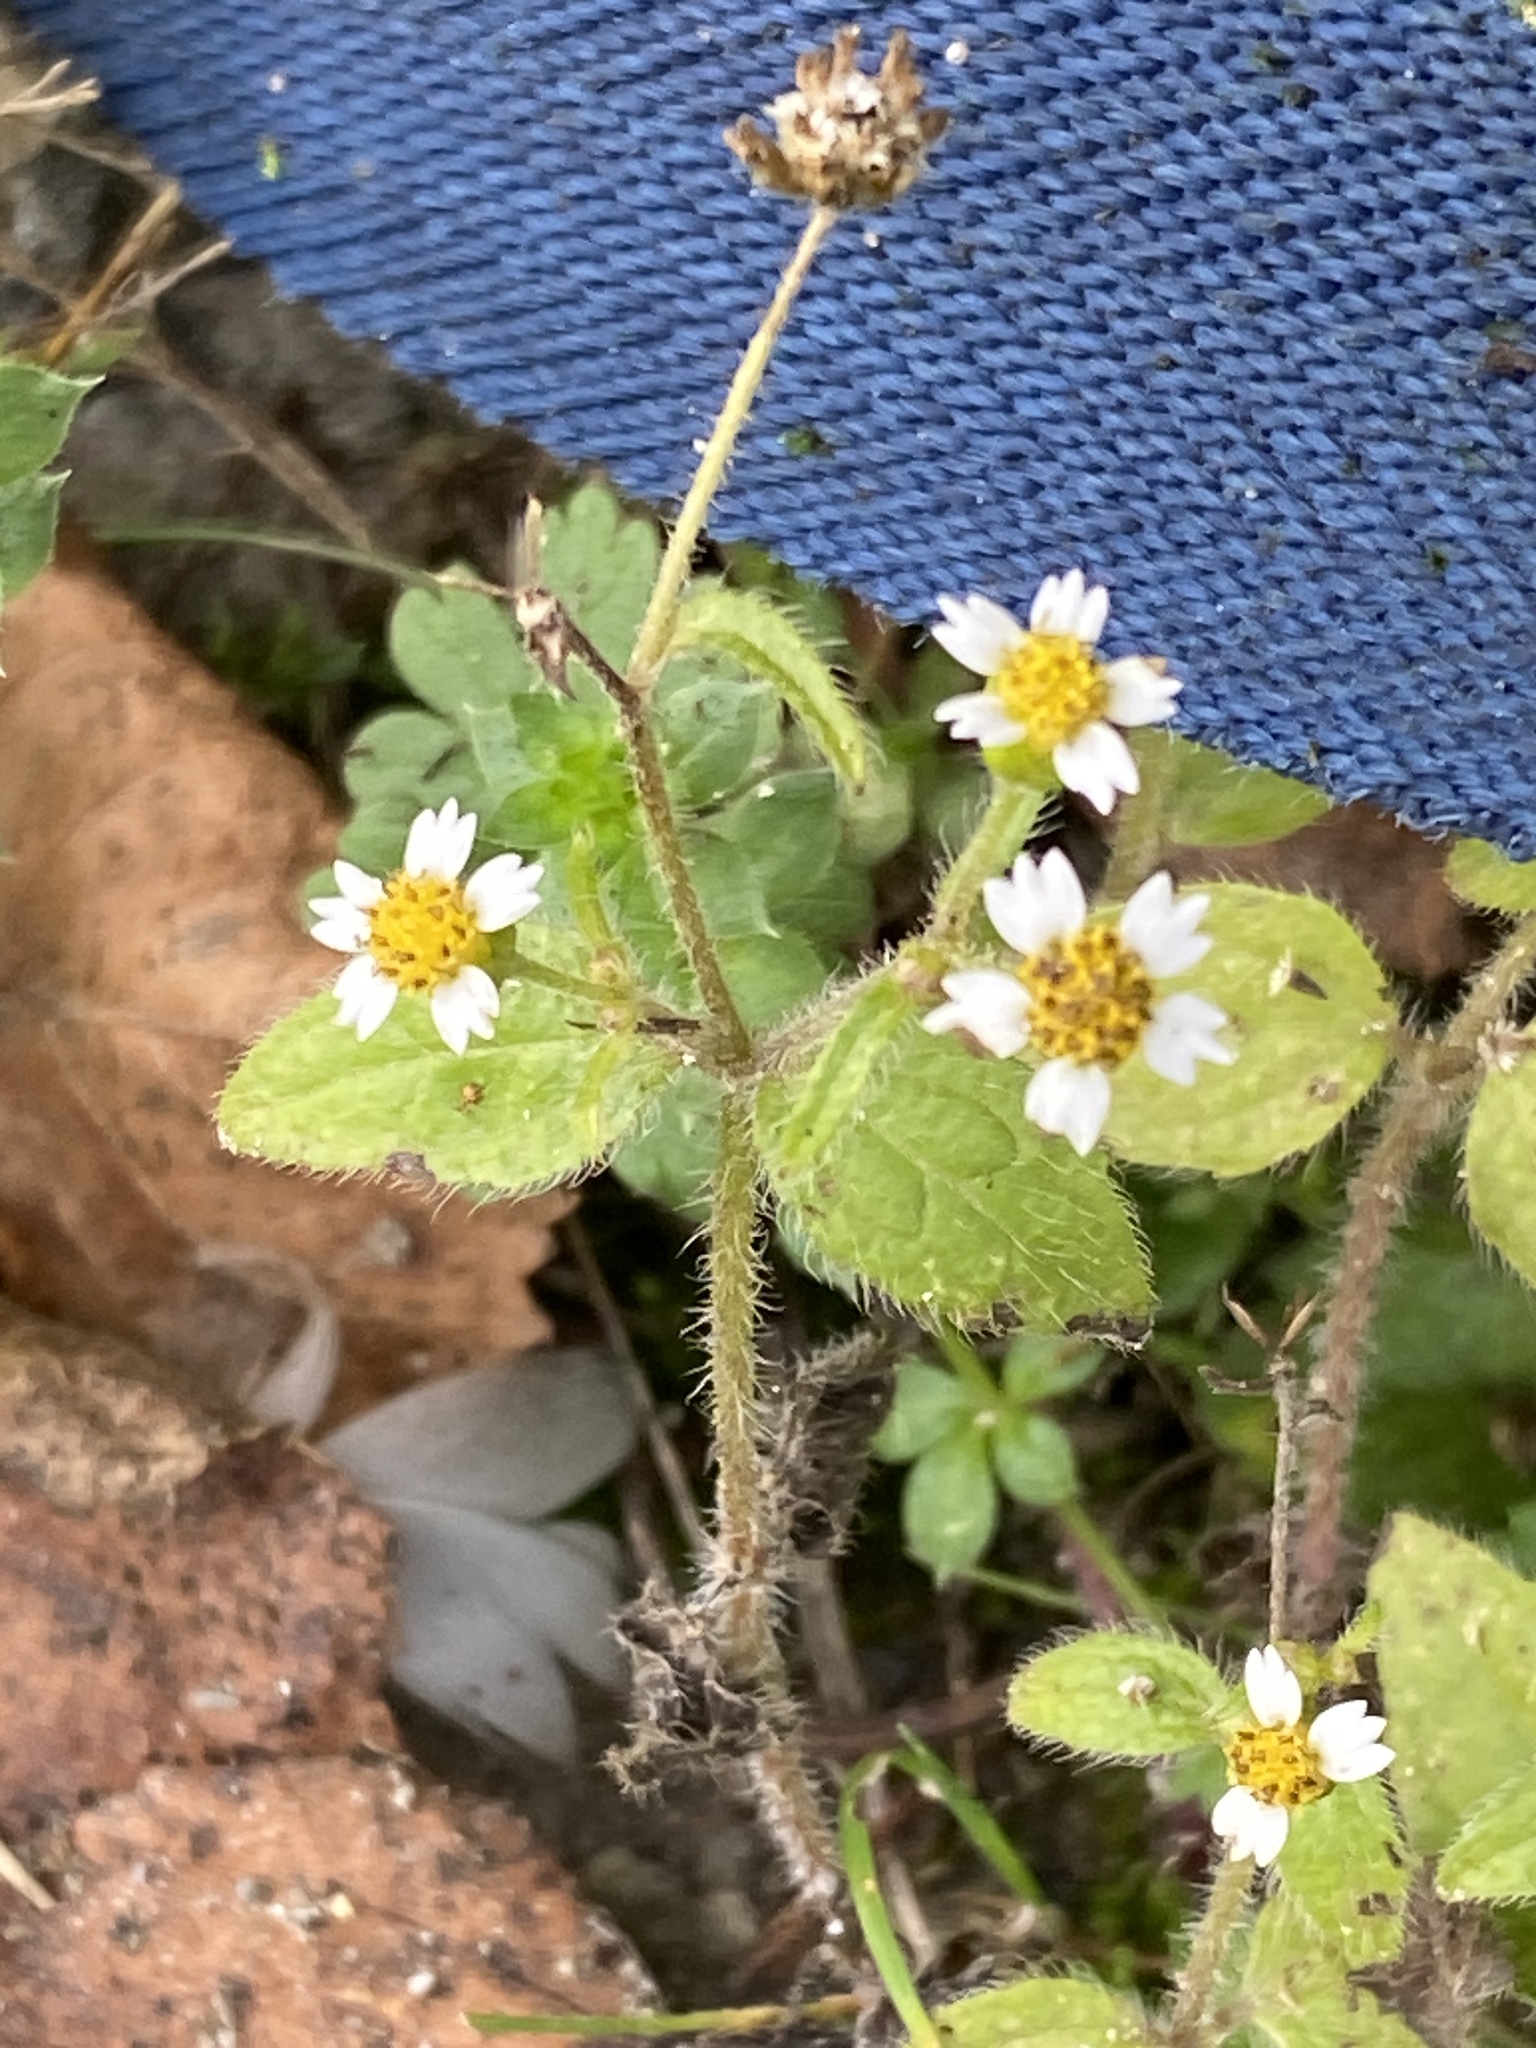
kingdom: Plantae
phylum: Tracheophyta
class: Magnoliopsida
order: Asterales
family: Asteraceae
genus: Galinsoga
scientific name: Galinsoga quadriradiata
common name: Shaggy soldier
